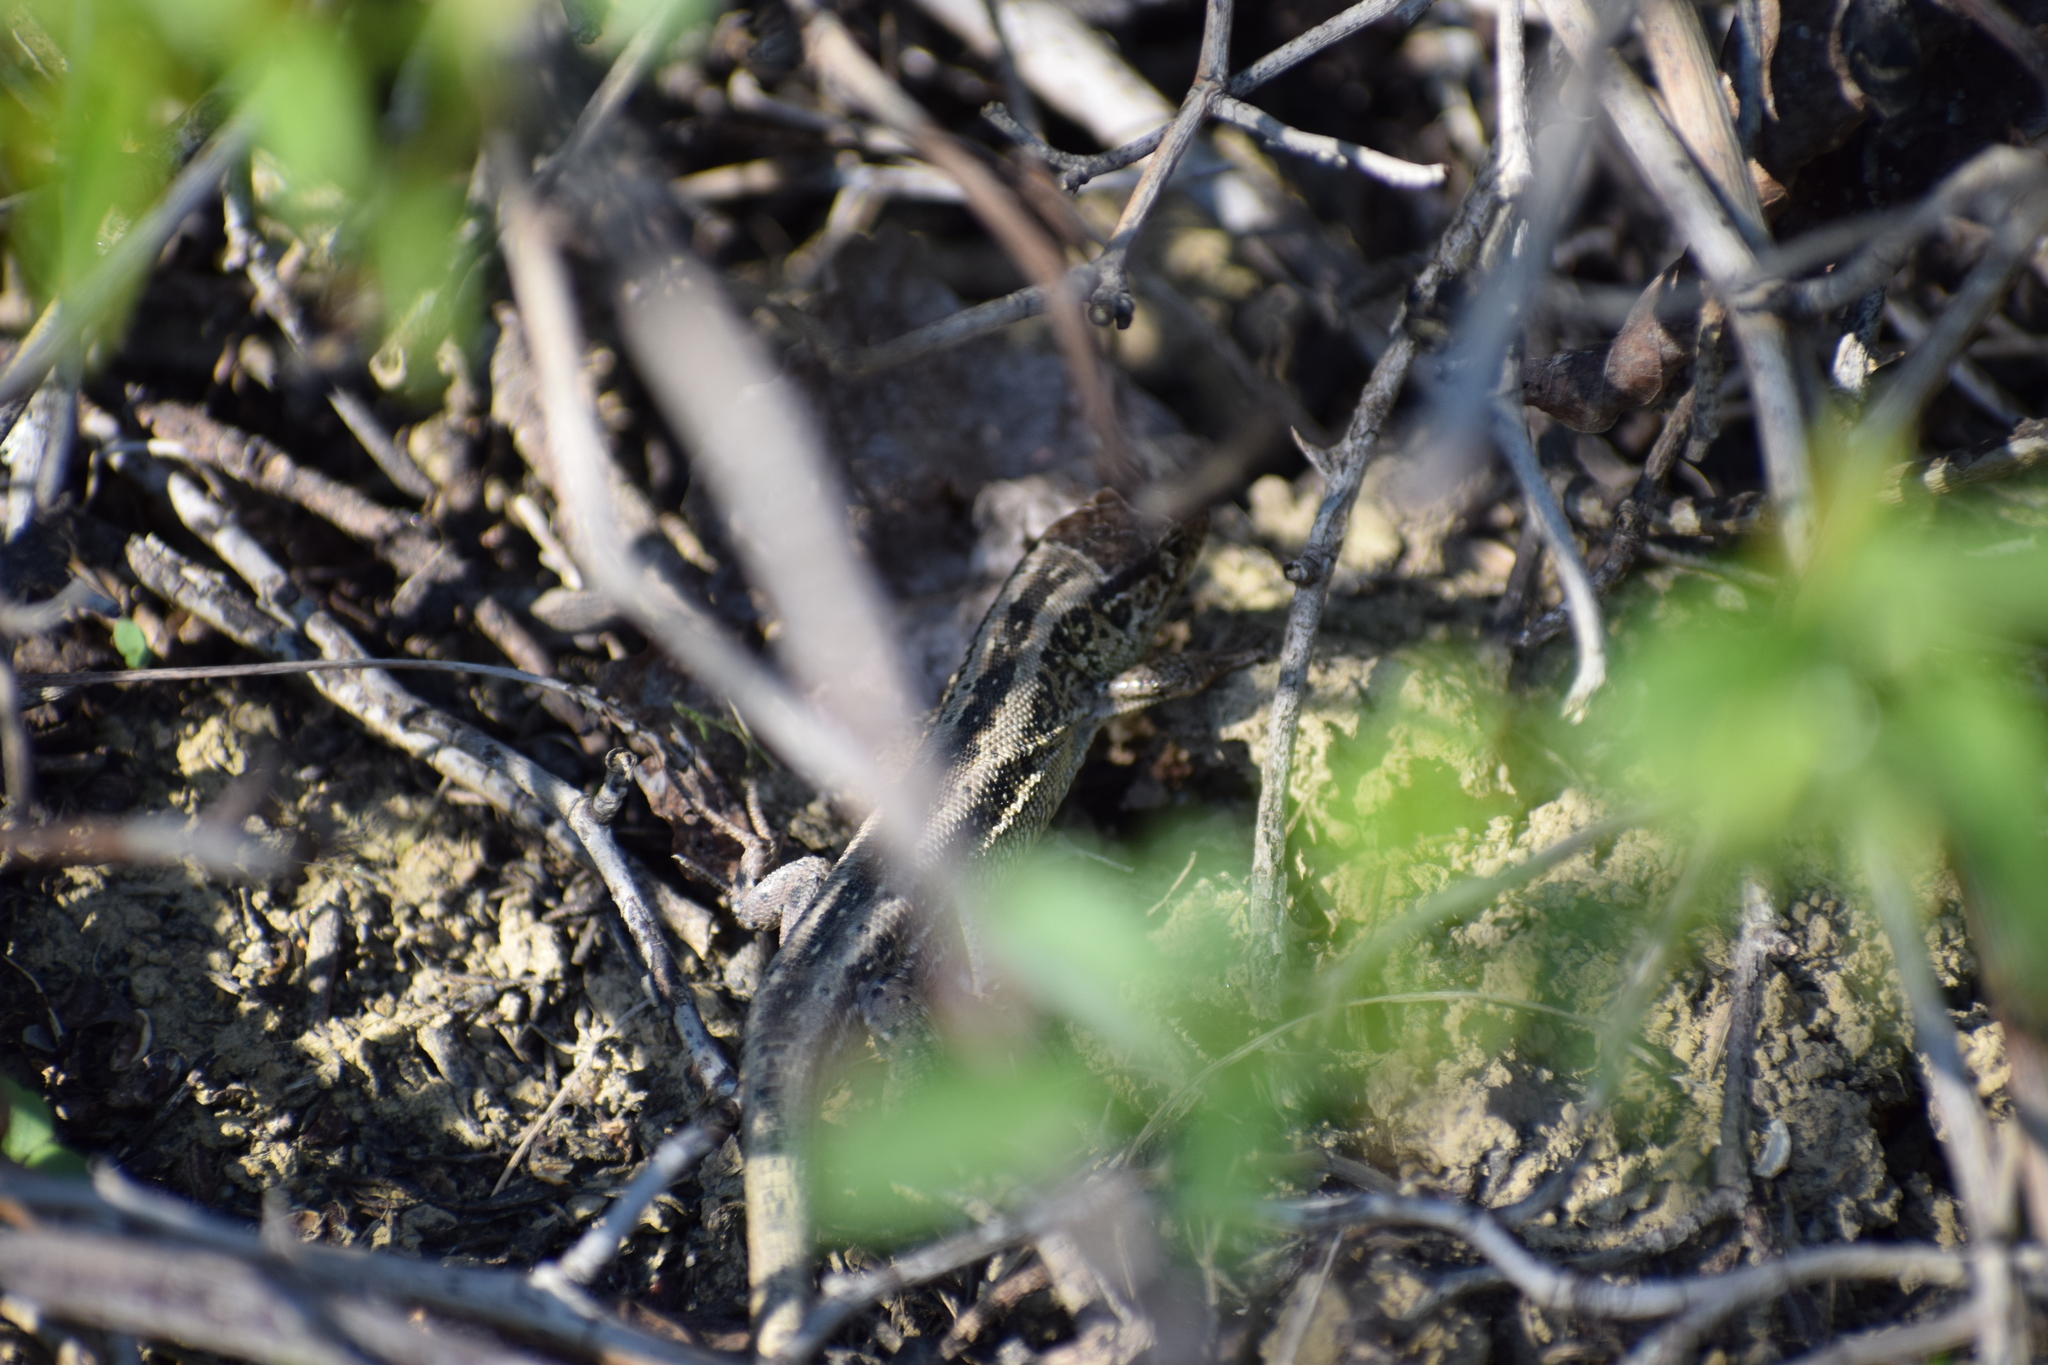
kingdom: Animalia
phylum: Chordata
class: Squamata
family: Lacertidae
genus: Lacerta
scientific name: Lacerta agilis
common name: Sand lizard
